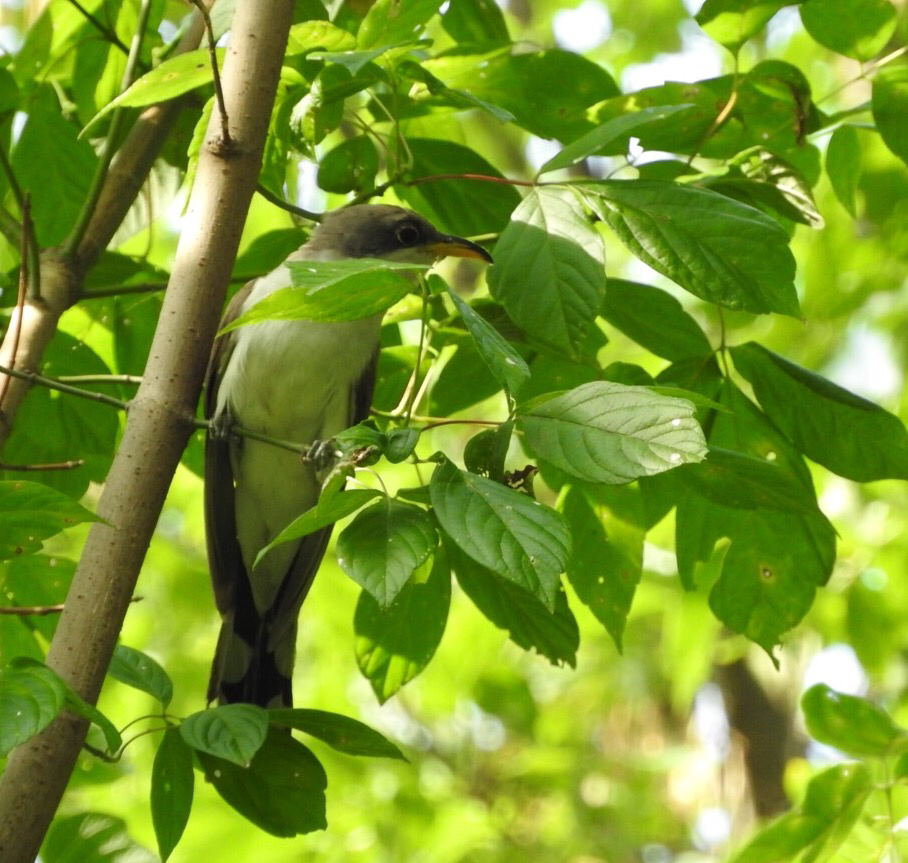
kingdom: Animalia
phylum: Chordata
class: Aves
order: Cuculiformes
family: Cuculidae
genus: Coccyzus
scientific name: Coccyzus americanus
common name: Yellow-billed cuckoo
